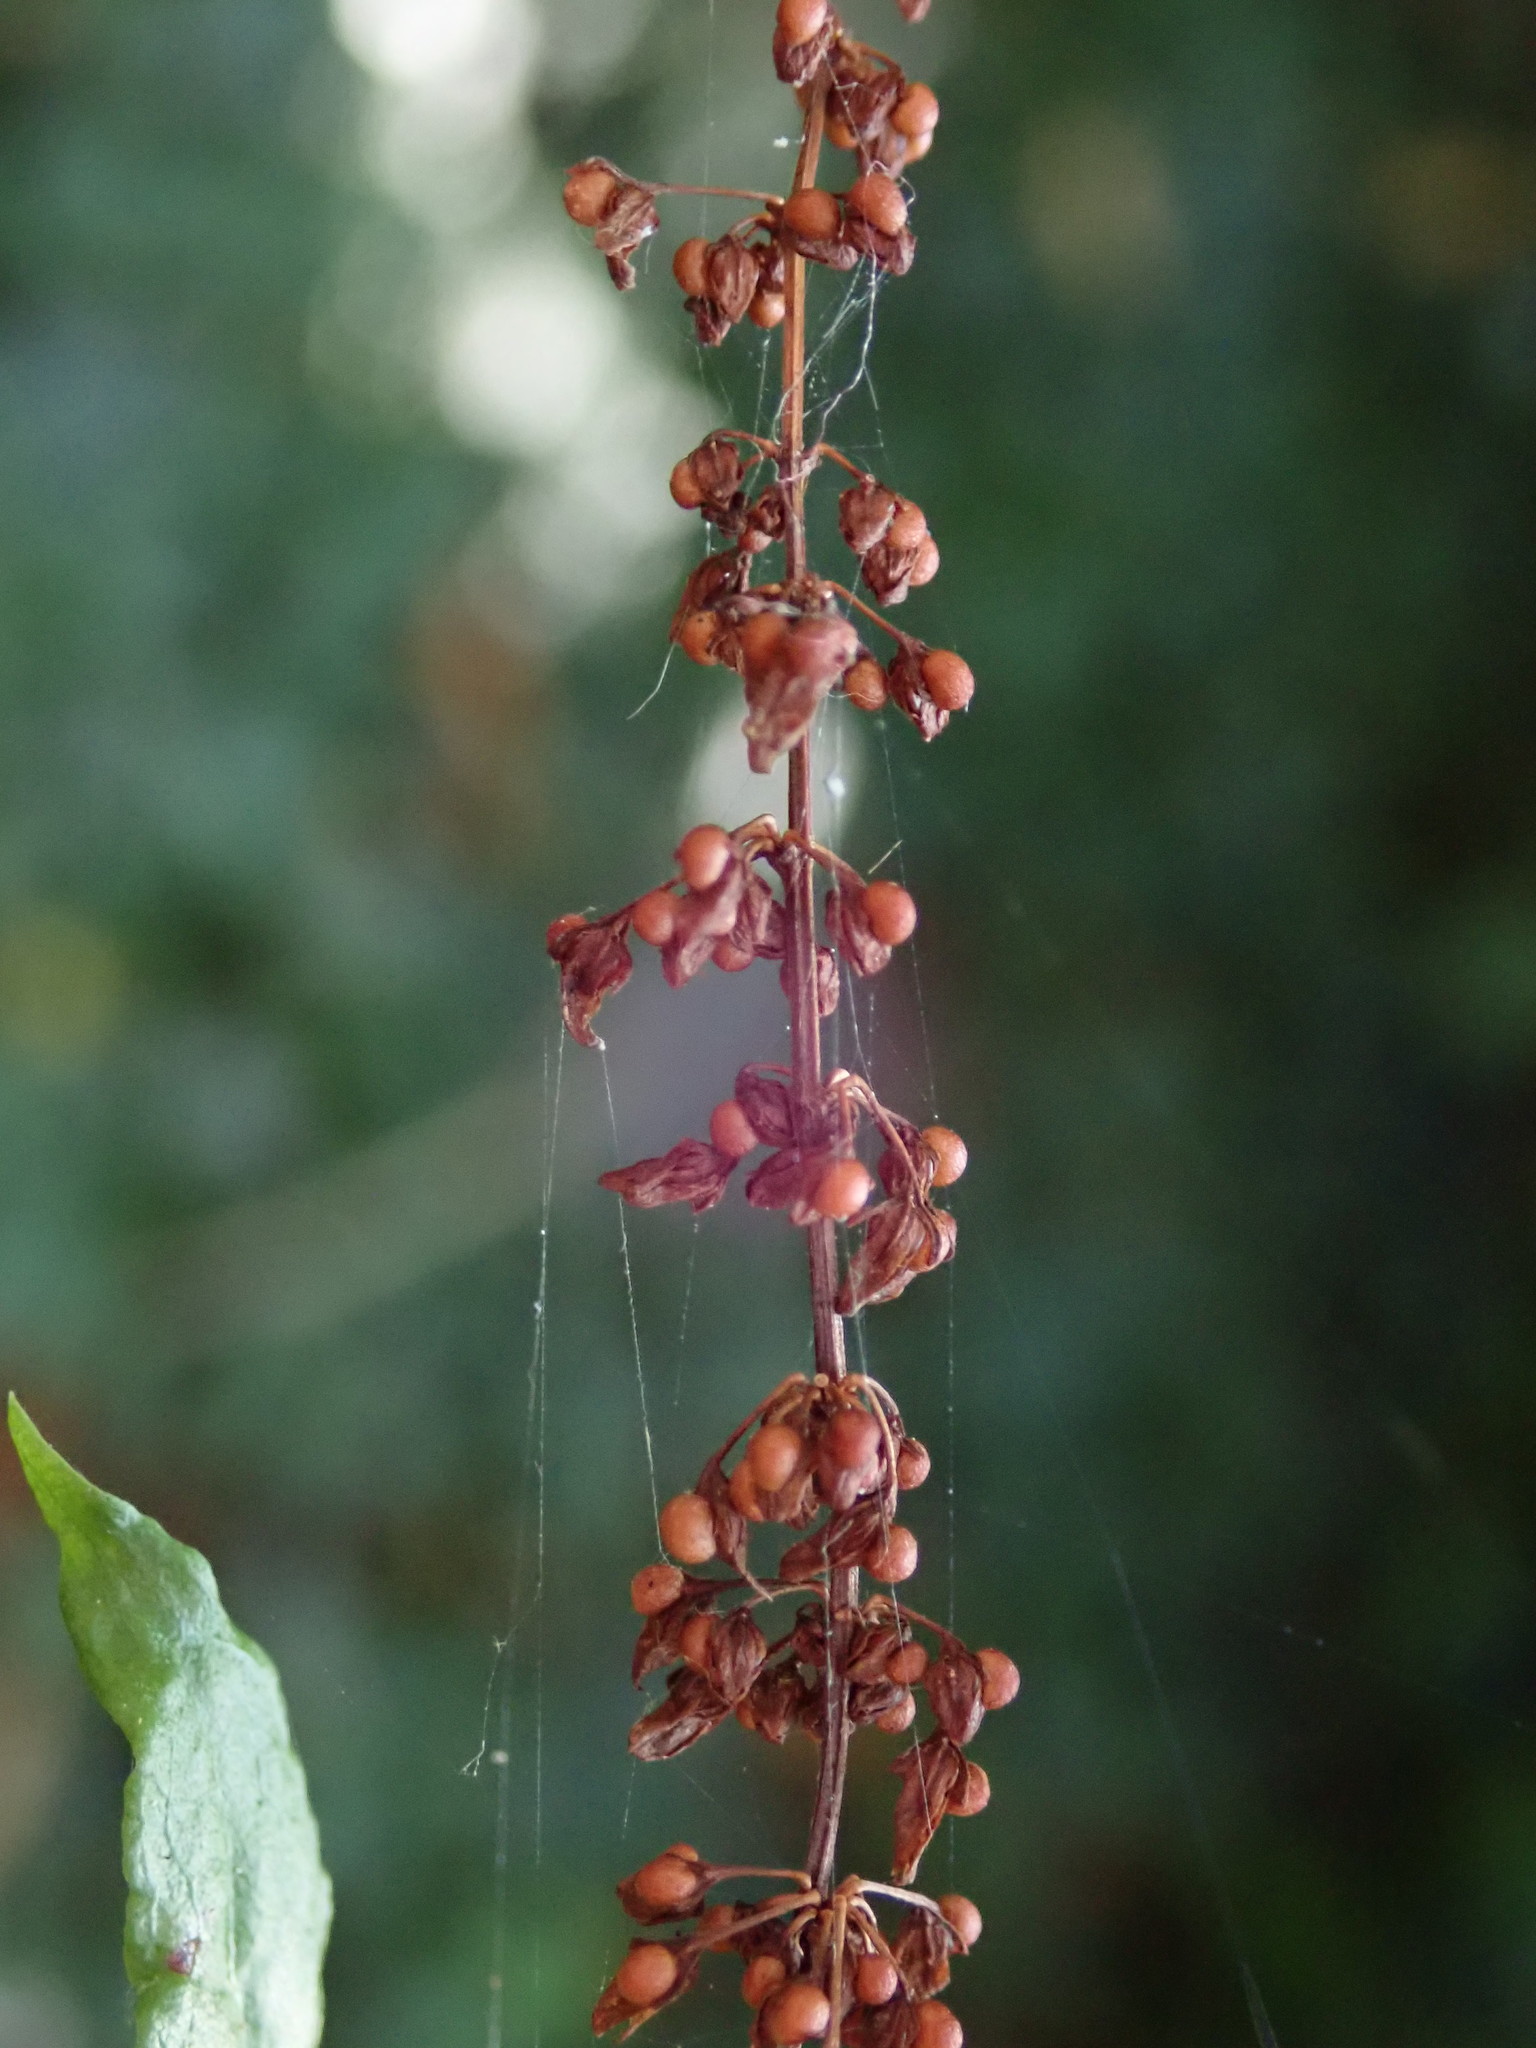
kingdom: Plantae
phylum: Tracheophyta
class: Magnoliopsida
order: Caryophyllales
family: Polygonaceae
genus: Rumex
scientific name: Rumex sanguineus
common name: Wood dock
